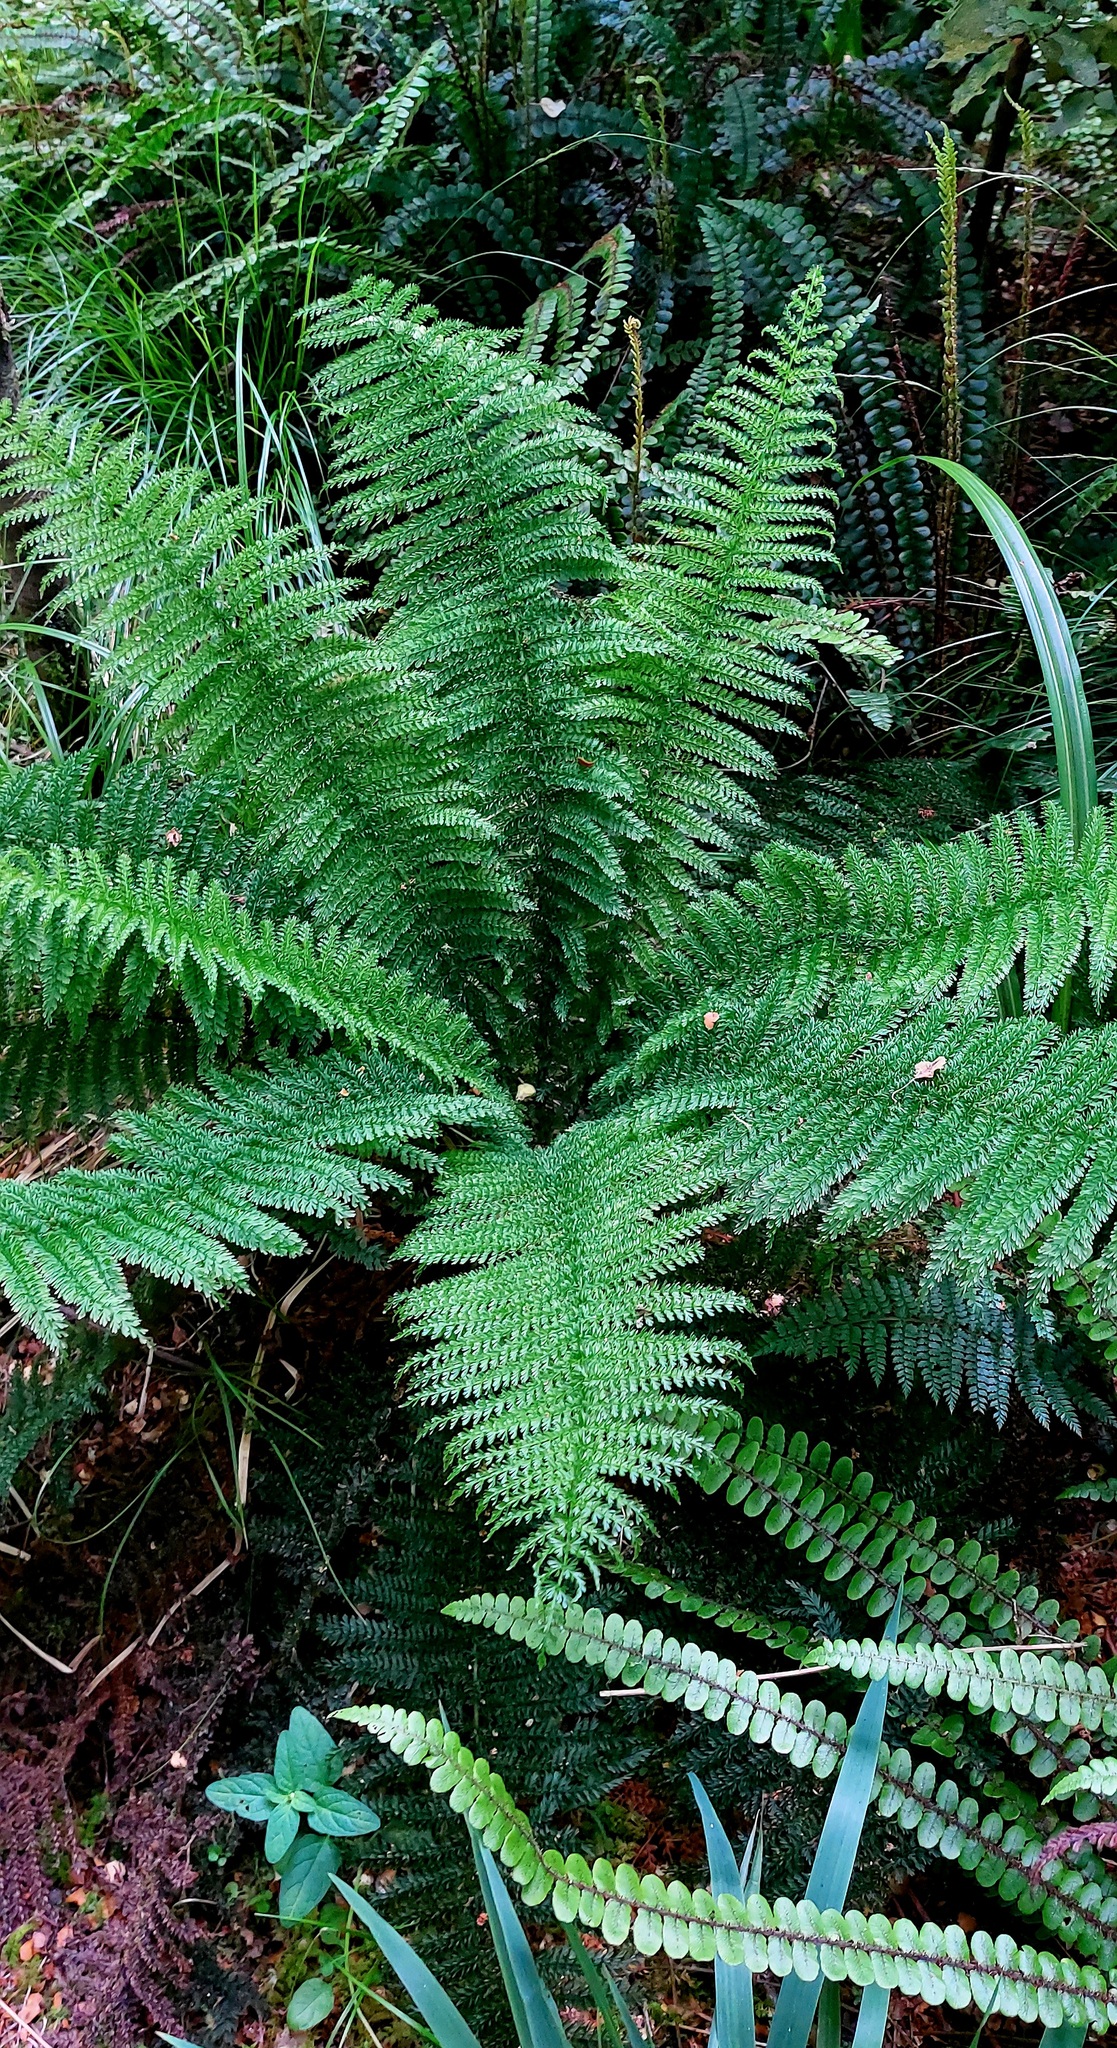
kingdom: Plantae
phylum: Tracheophyta
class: Polypodiopsida
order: Osmundales
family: Osmundaceae
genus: Leptopteris
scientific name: Leptopteris superba
